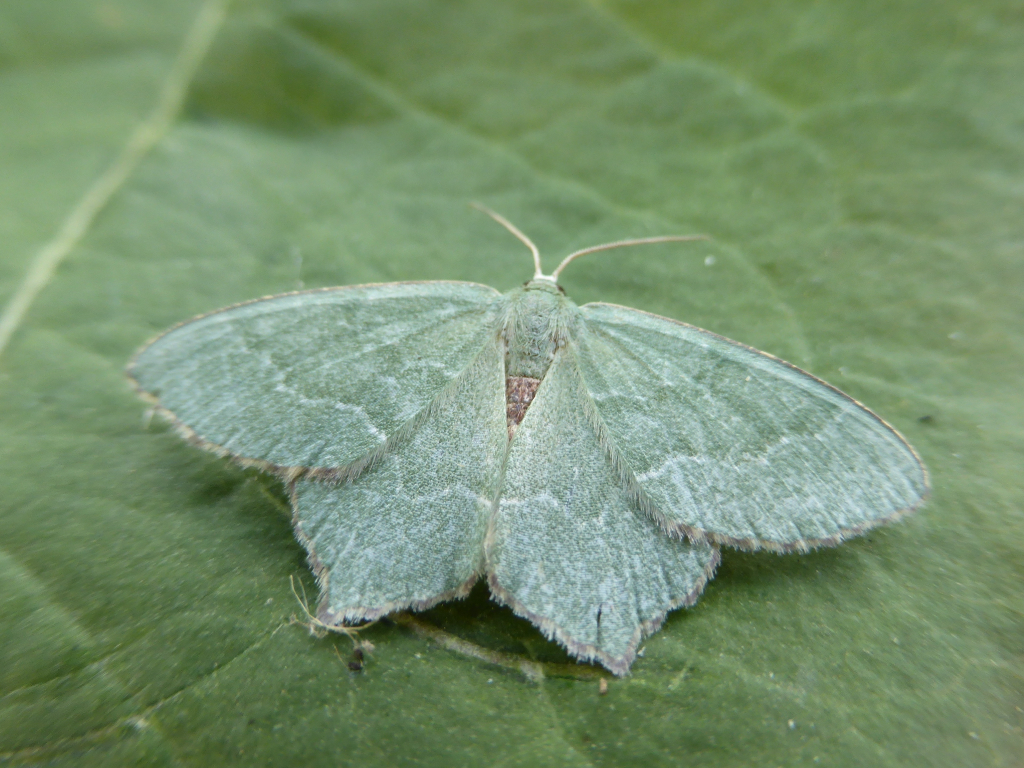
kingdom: Animalia
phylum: Arthropoda
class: Insecta
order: Lepidoptera
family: Geometridae
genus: Hemithea
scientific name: Hemithea aestivaria
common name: Common emerald
